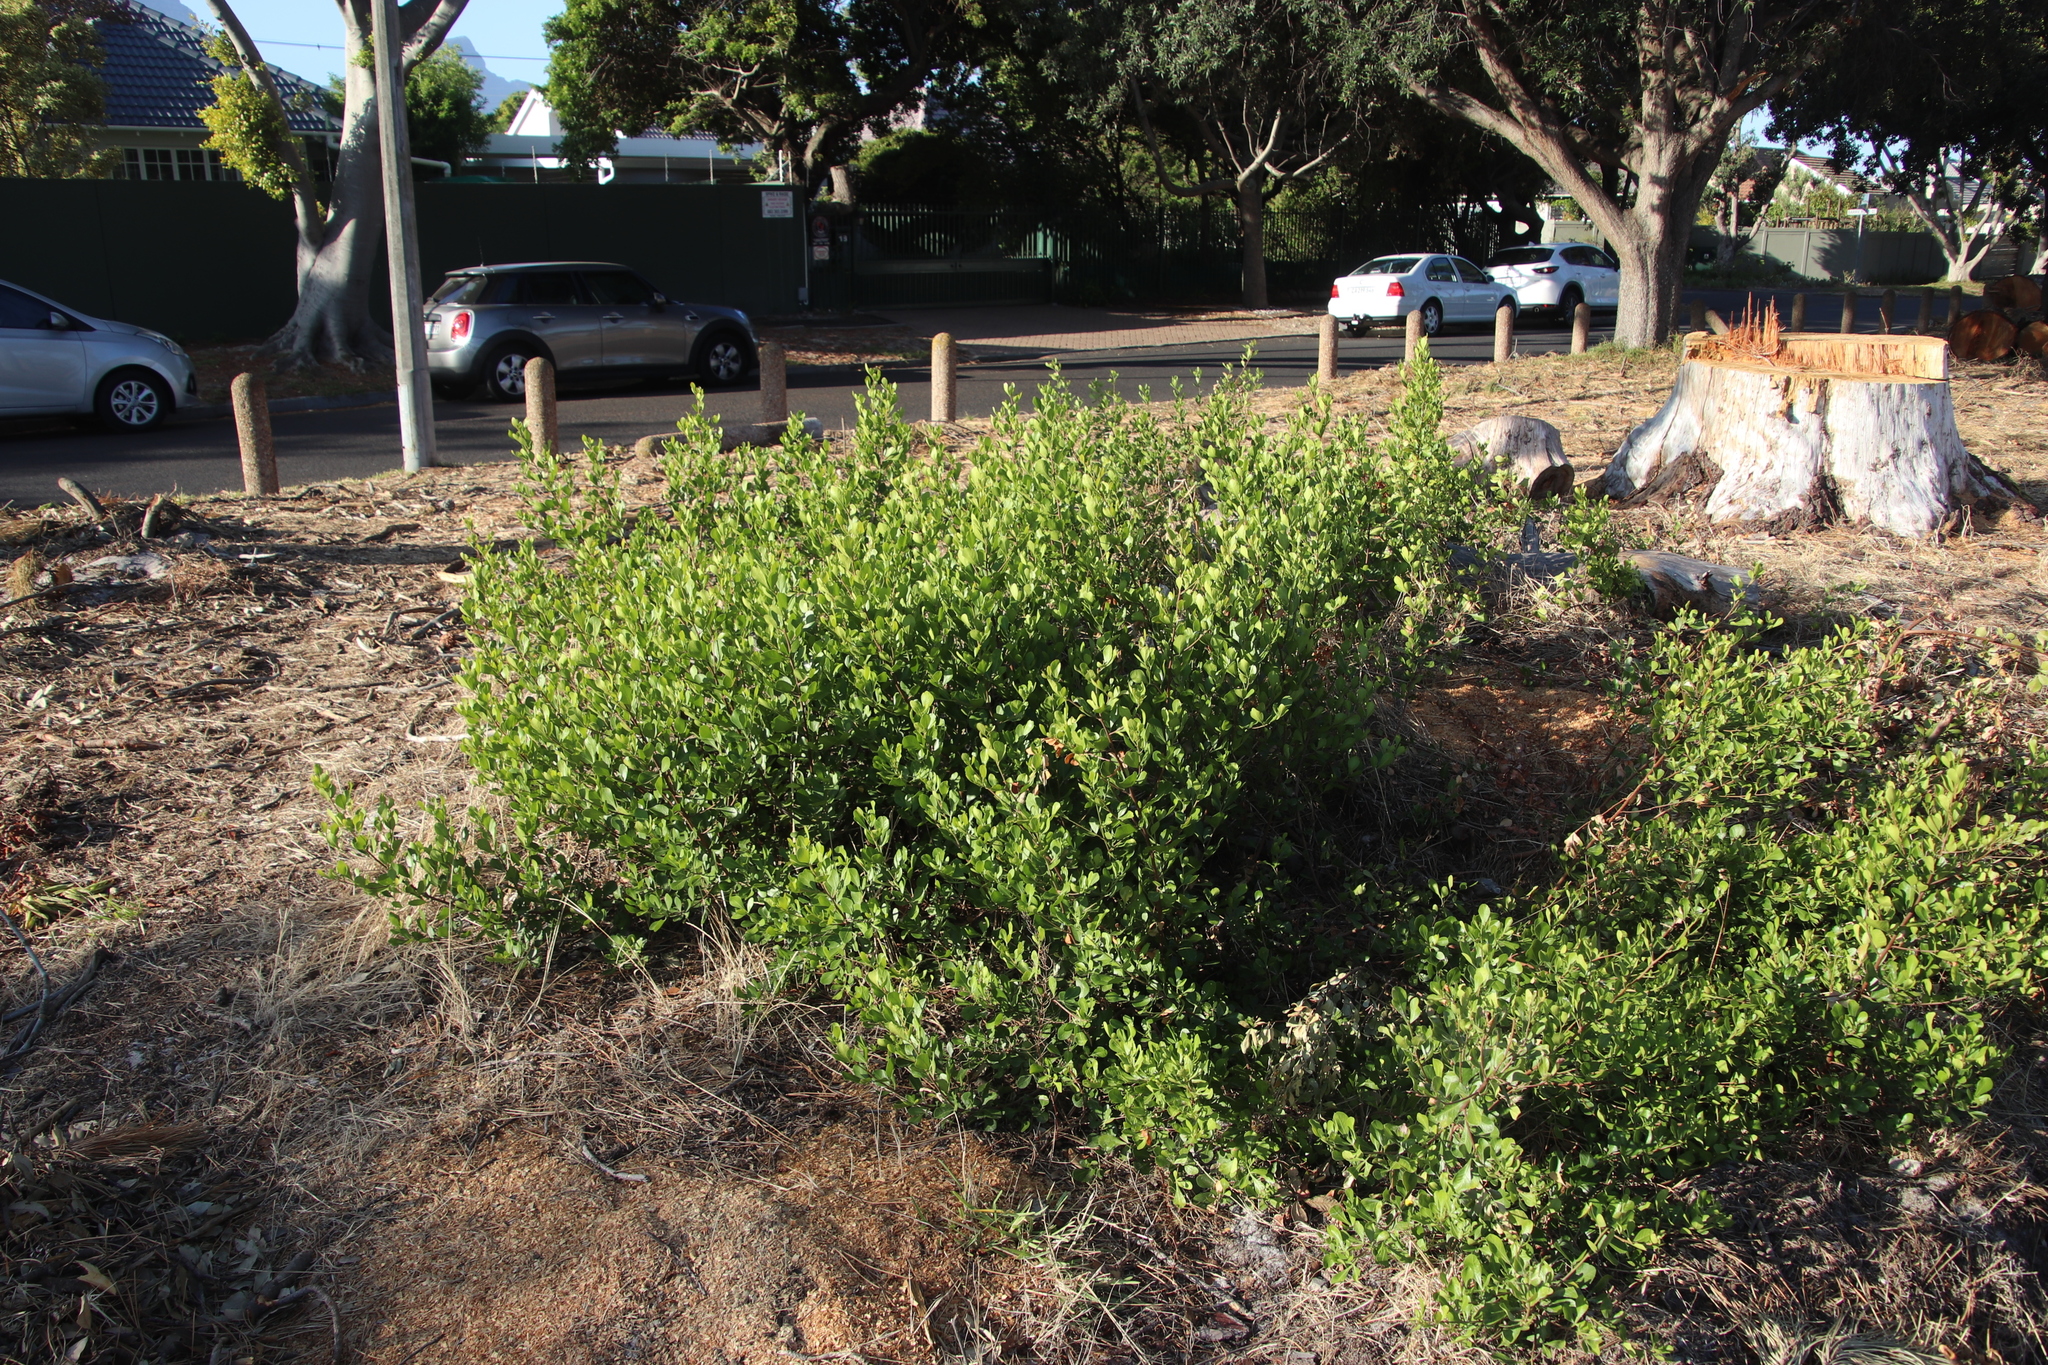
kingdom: Plantae
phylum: Tracheophyta
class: Magnoliopsida
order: Sapindales
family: Anacardiaceae
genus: Searsia
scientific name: Searsia lucida
